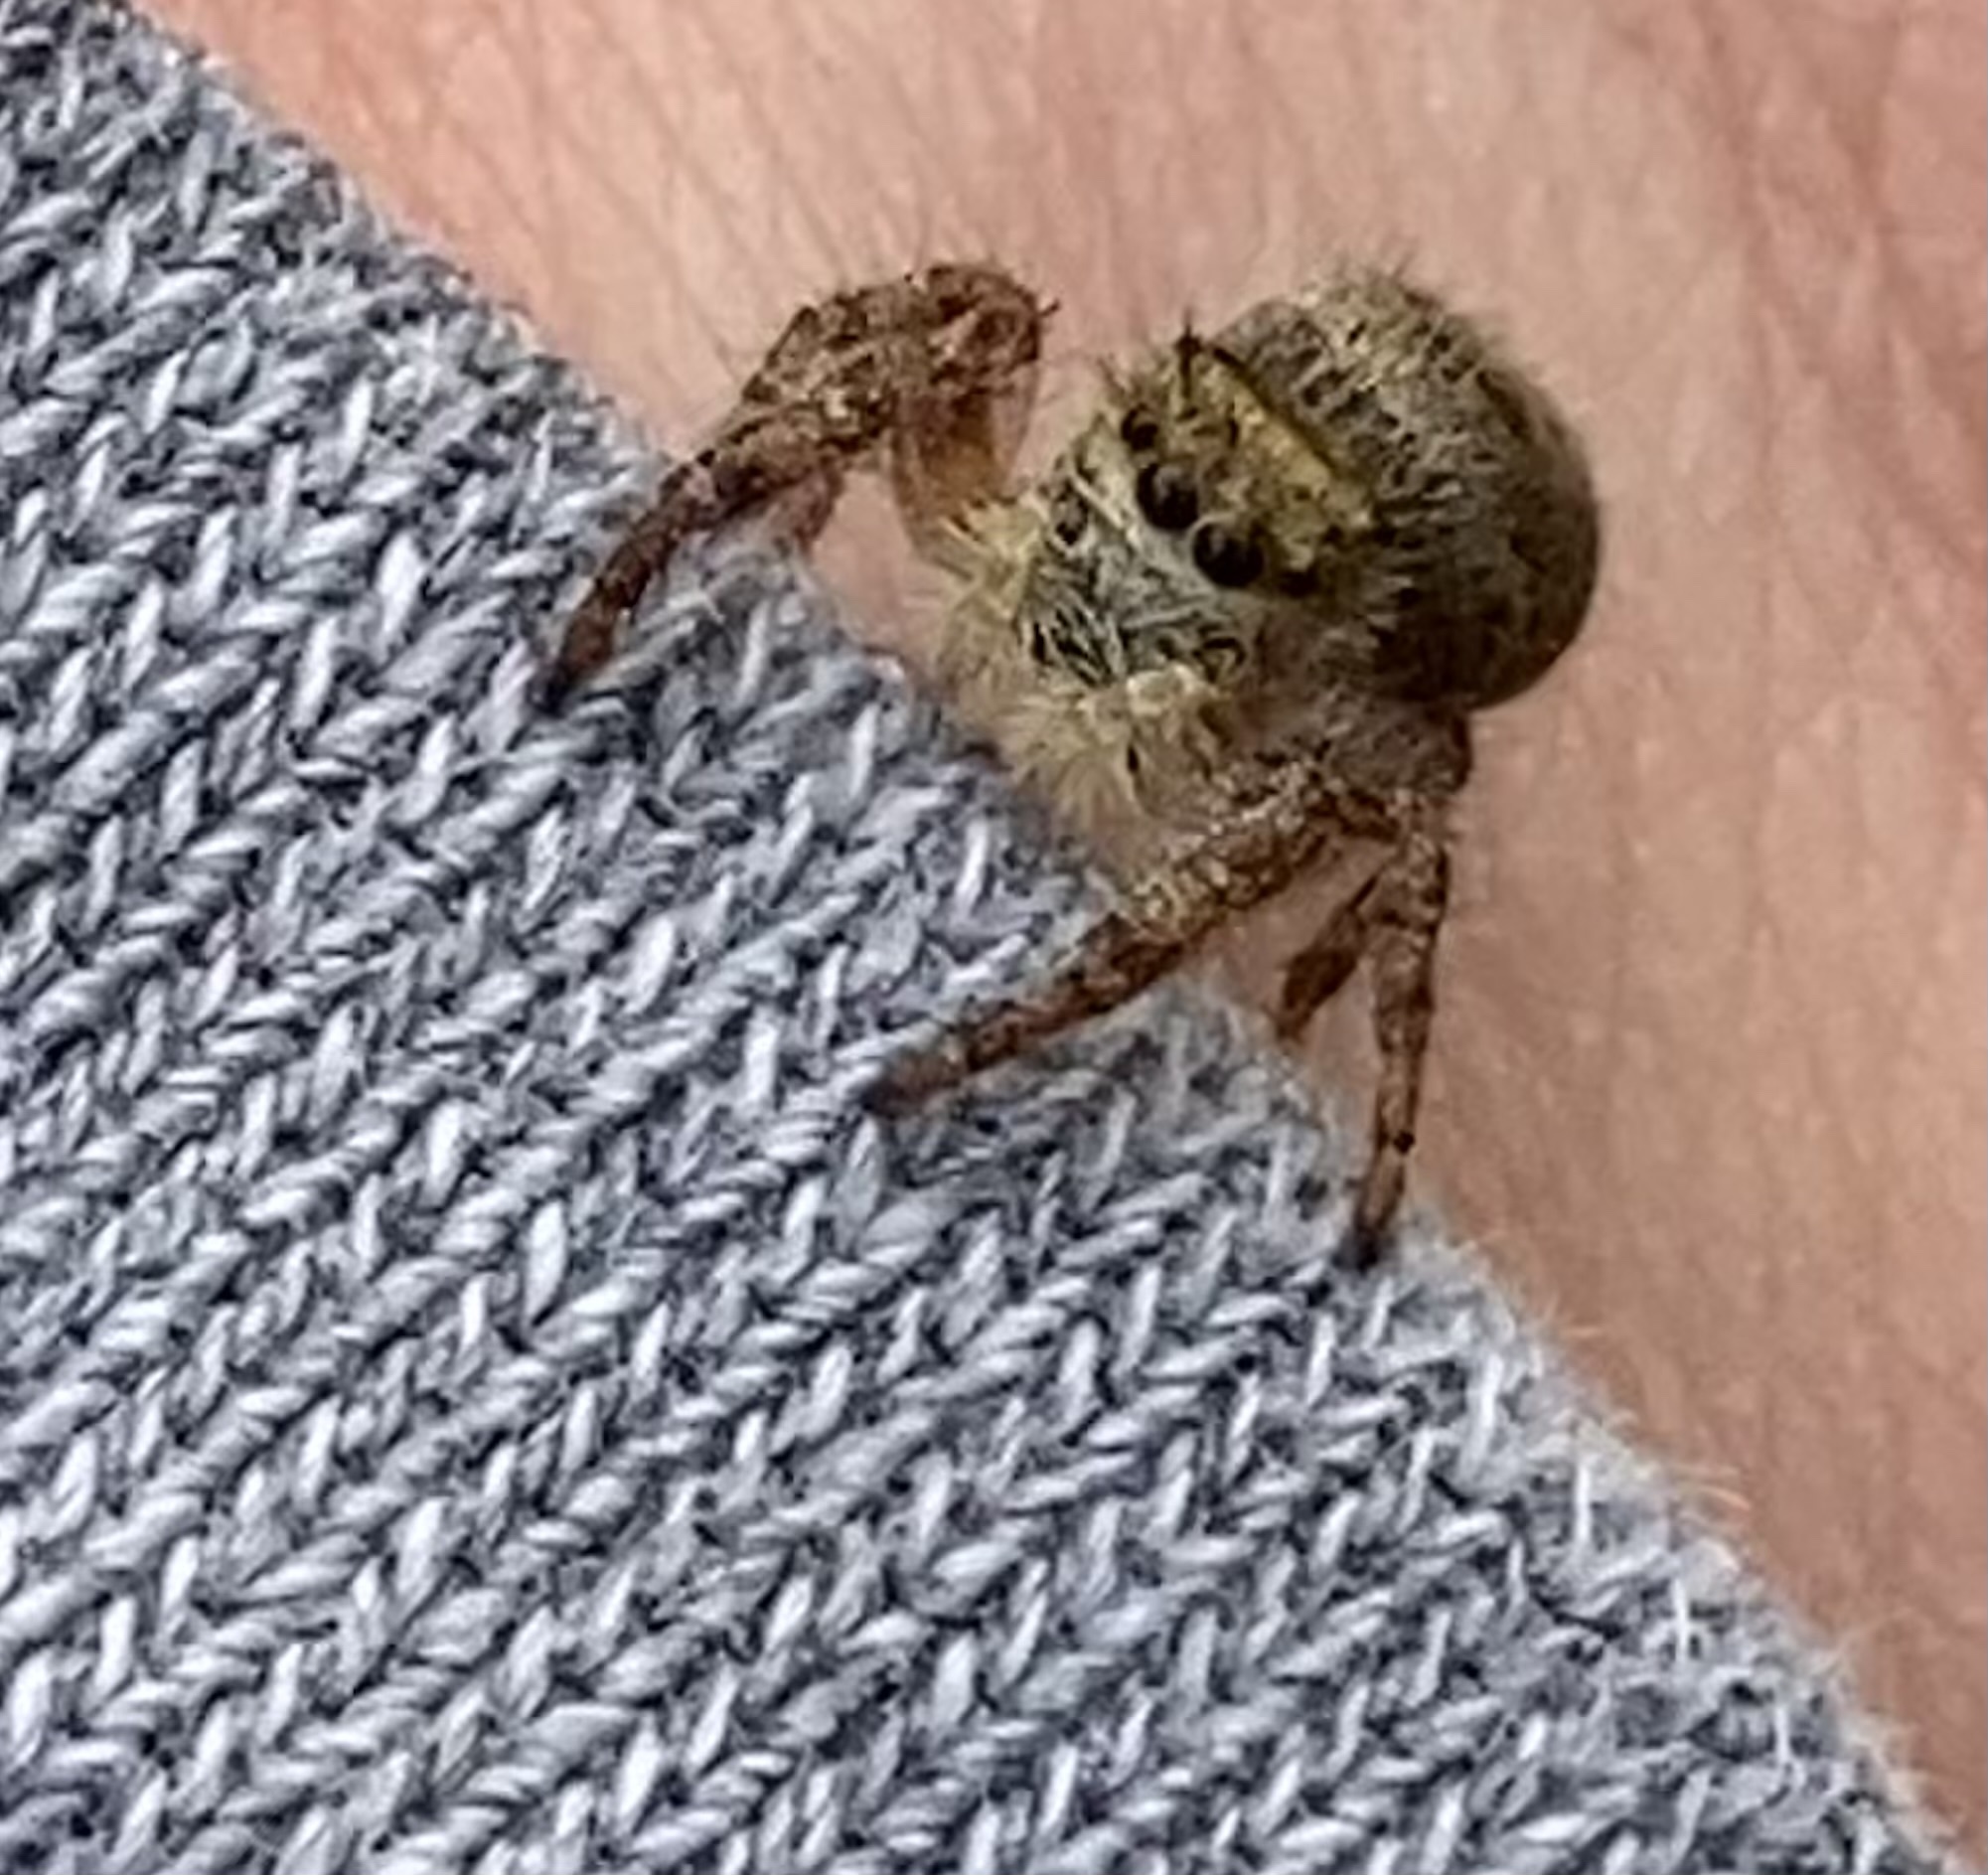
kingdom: Animalia
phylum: Arthropoda
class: Arachnida
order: Araneae
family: Salticidae
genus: Phidippus
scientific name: Phidippus princeps
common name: Grayish jumping spider
